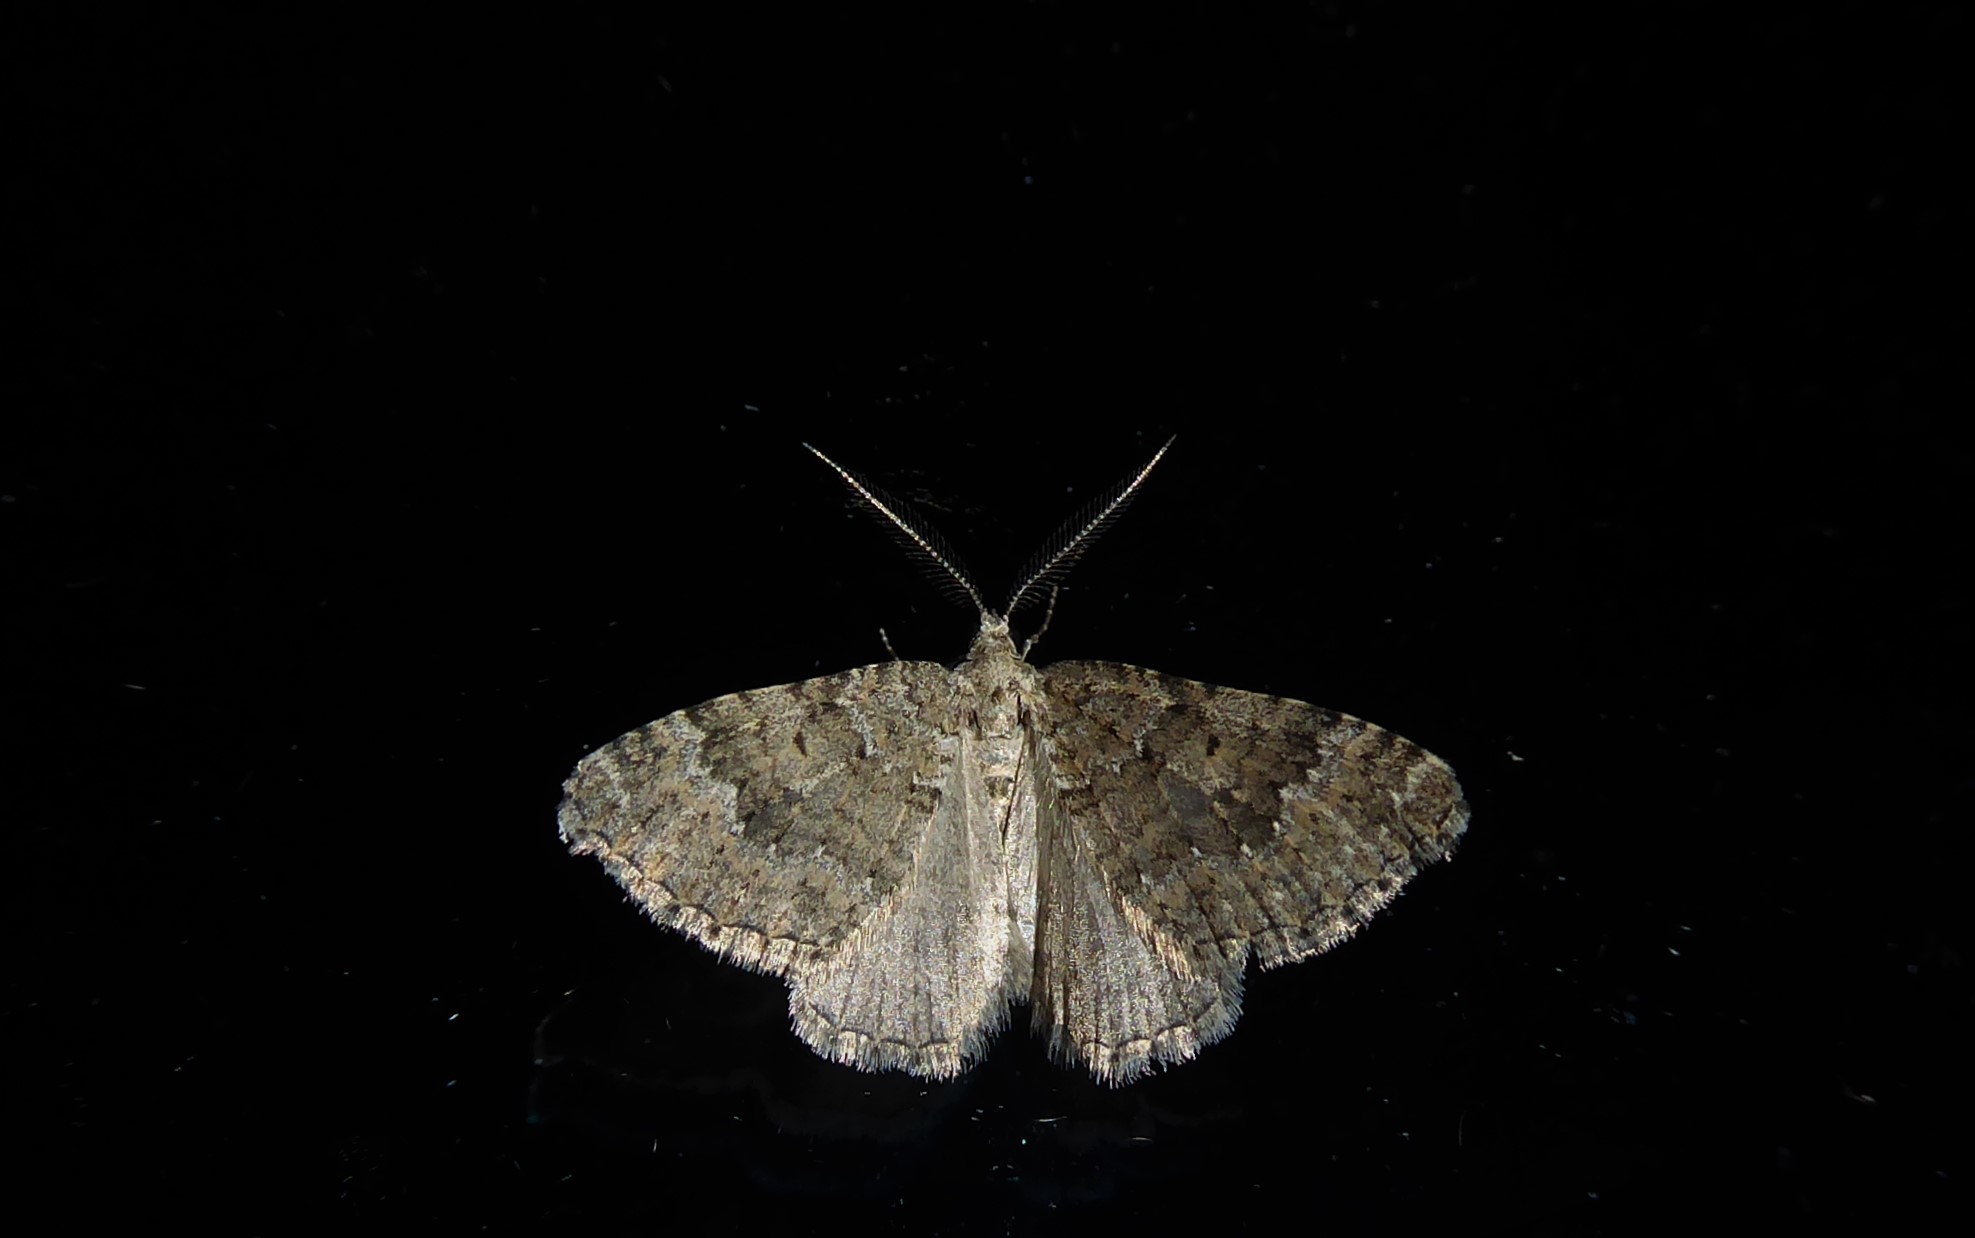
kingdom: Animalia
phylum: Arthropoda
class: Insecta
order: Lepidoptera
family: Geometridae
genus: Helastia
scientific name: Helastia corcularia
